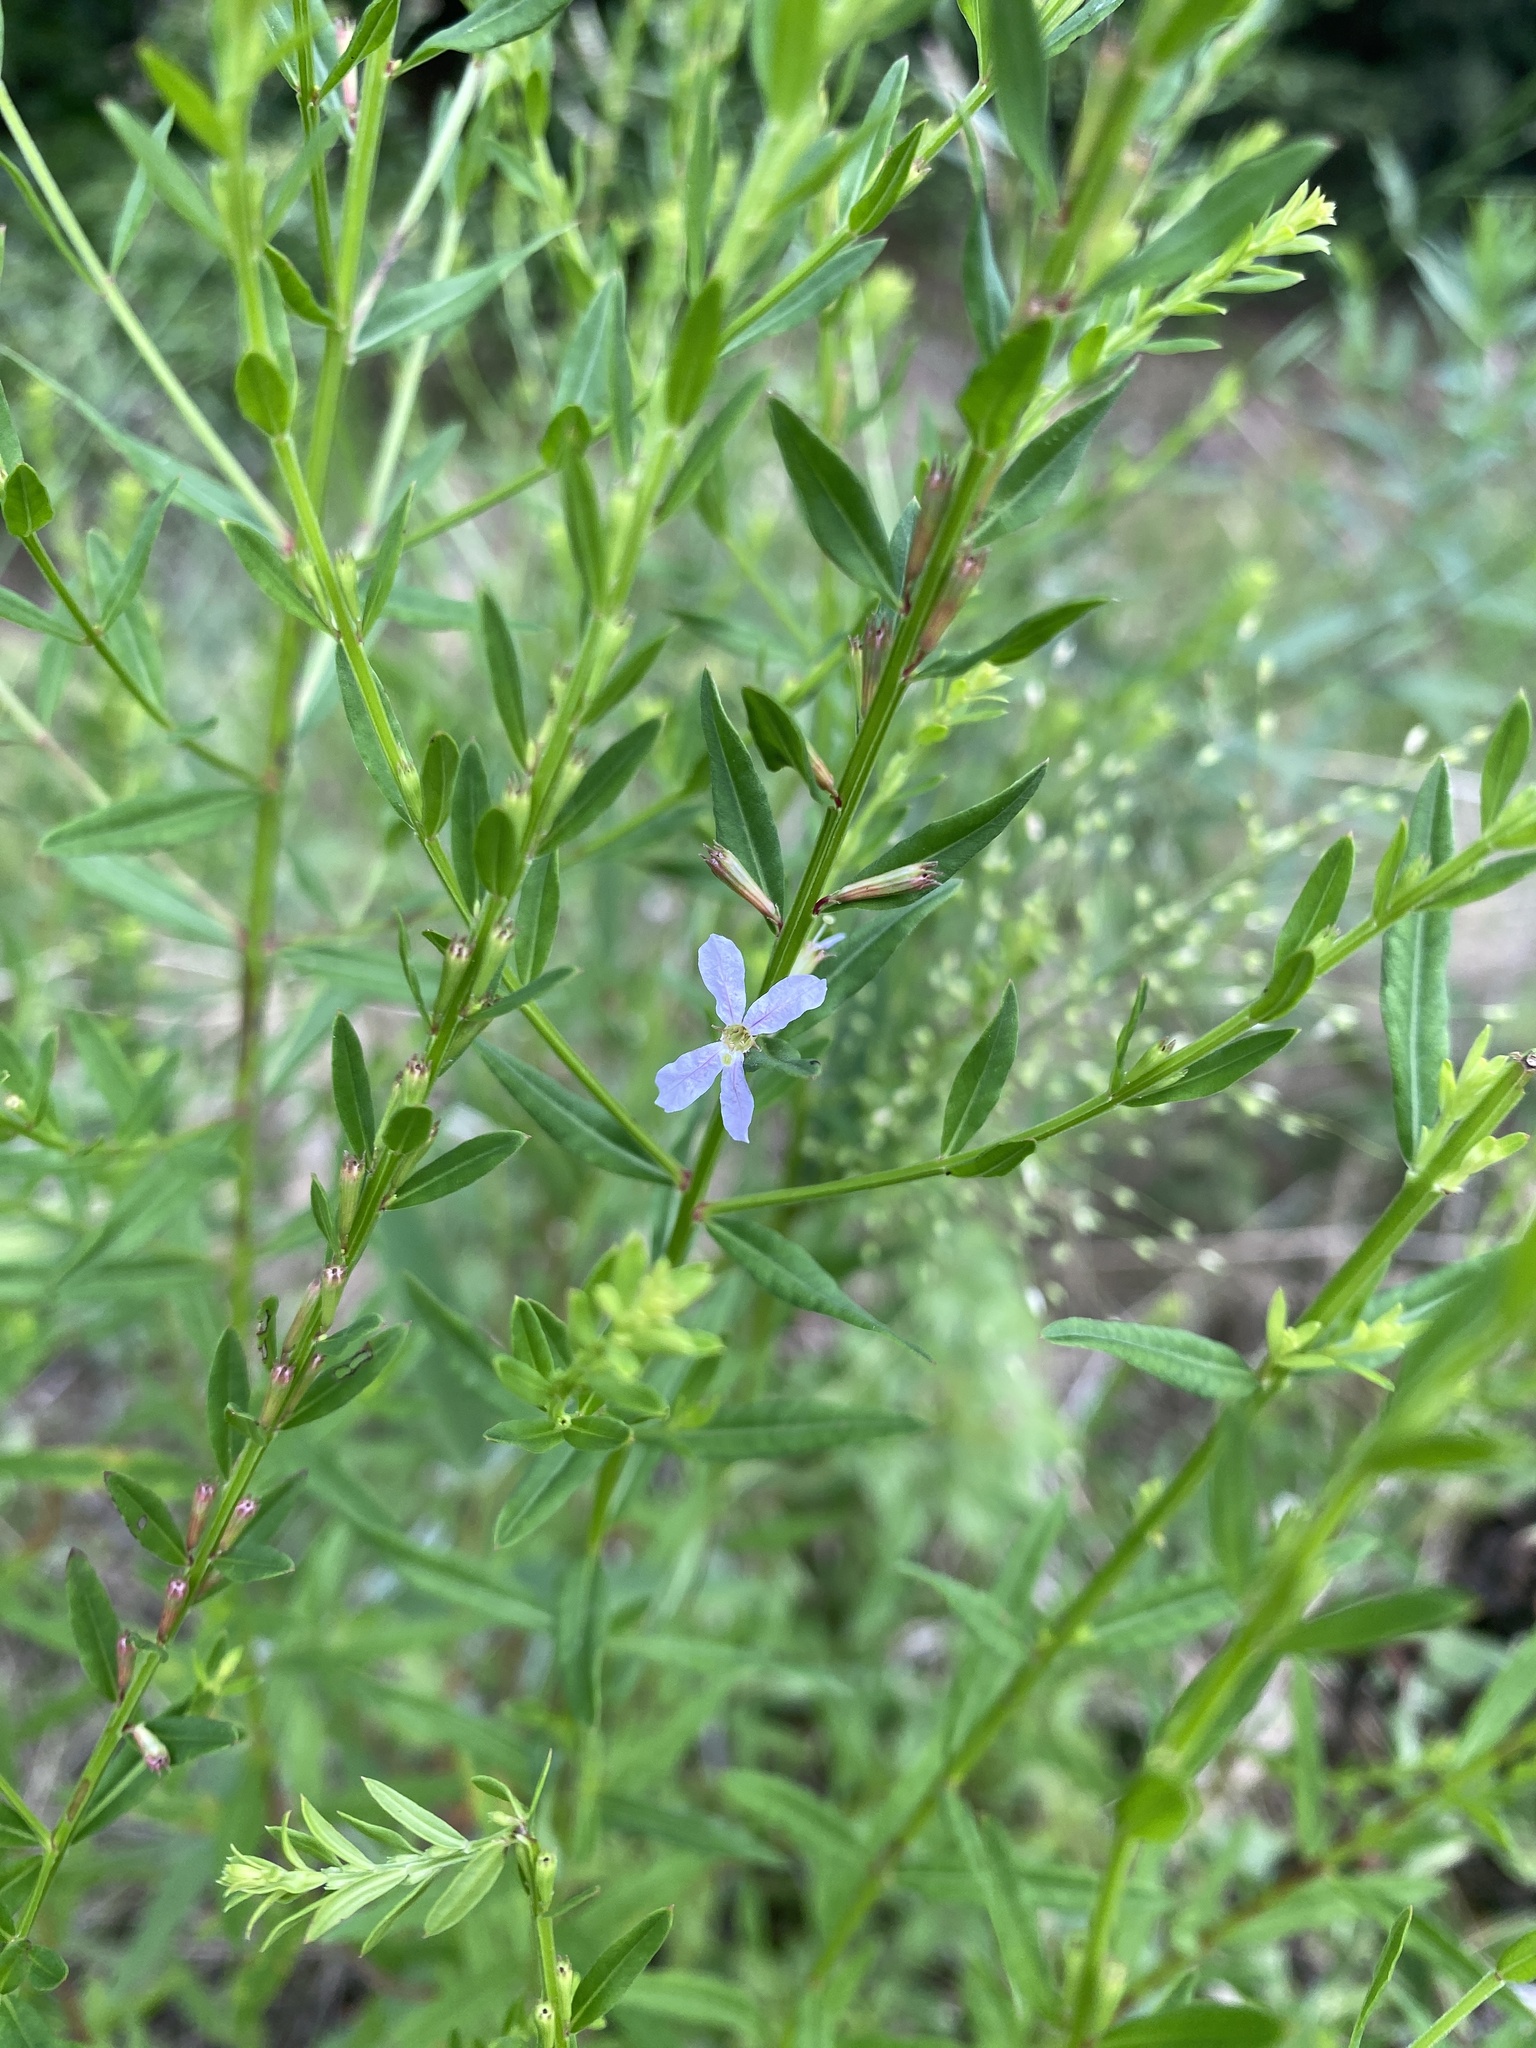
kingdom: Plantae
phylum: Tracheophyta
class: Magnoliopsida
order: Myrtales
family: Lythraceae
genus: Lythrum
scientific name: Lythrum alatum
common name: Winged loosestrife
